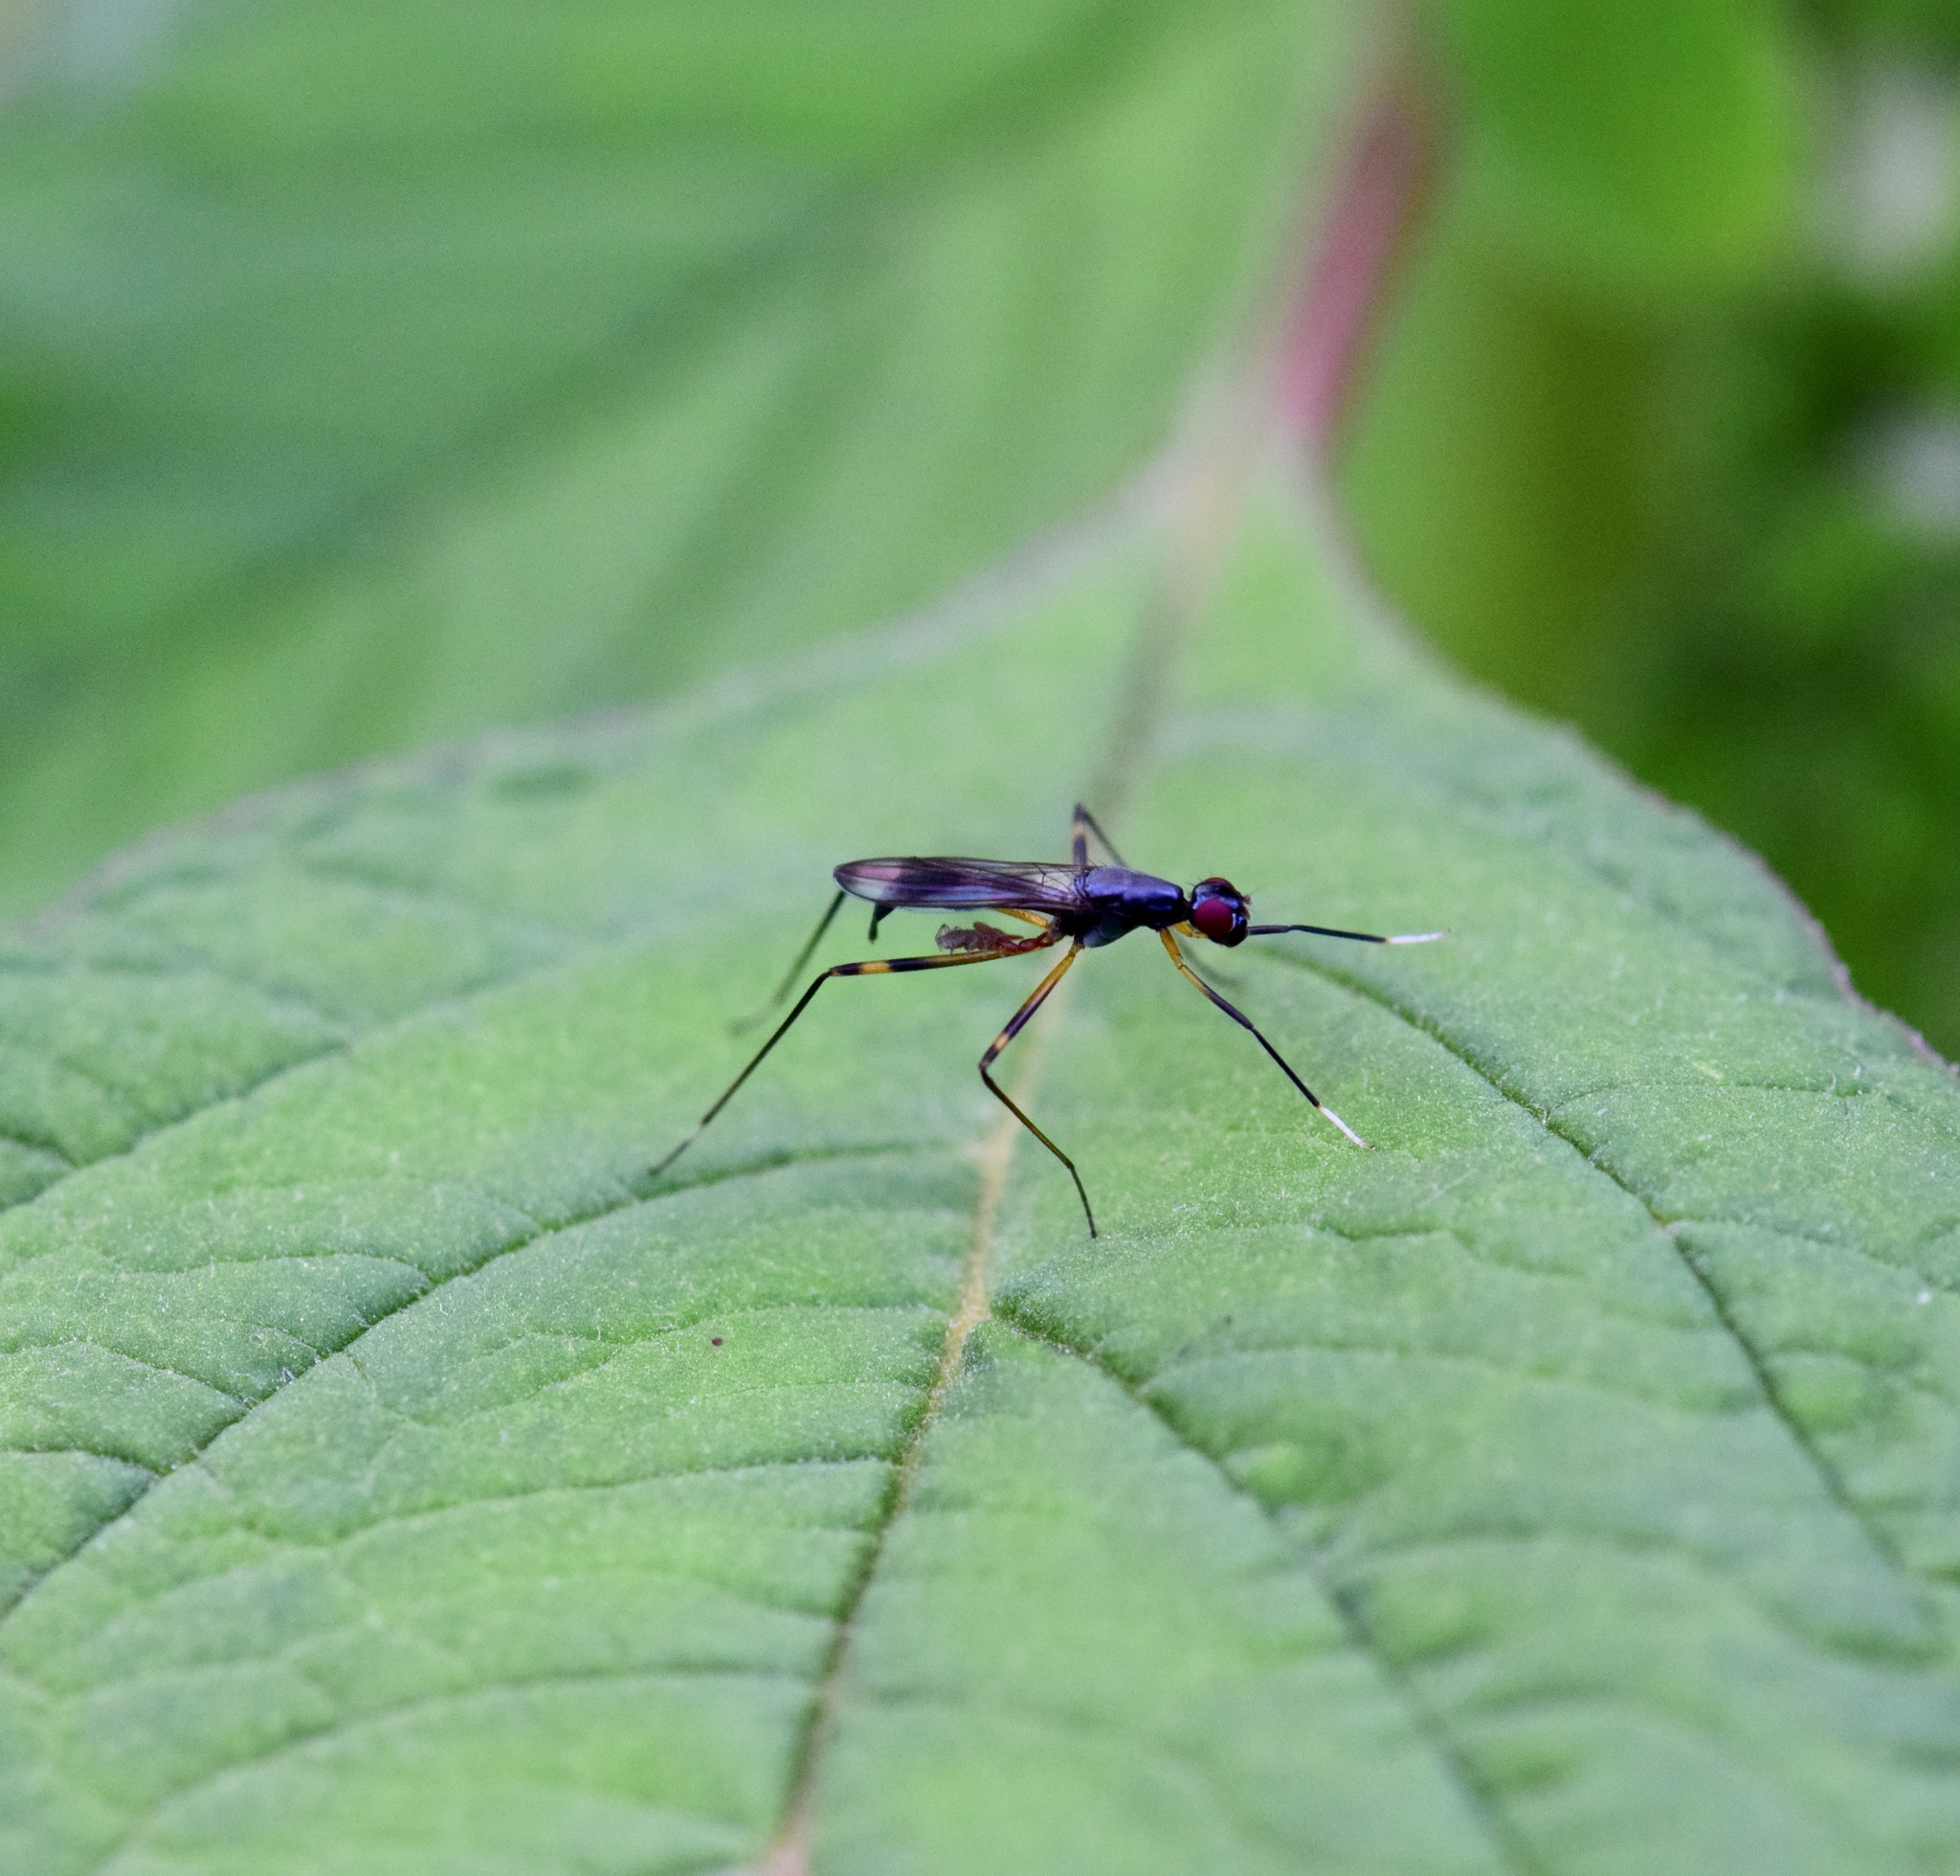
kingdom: Animalia
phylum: Arthropoda
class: Insecta
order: Diptera
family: Micropezidae
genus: Rainieria
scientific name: Rainieria antennaepes
